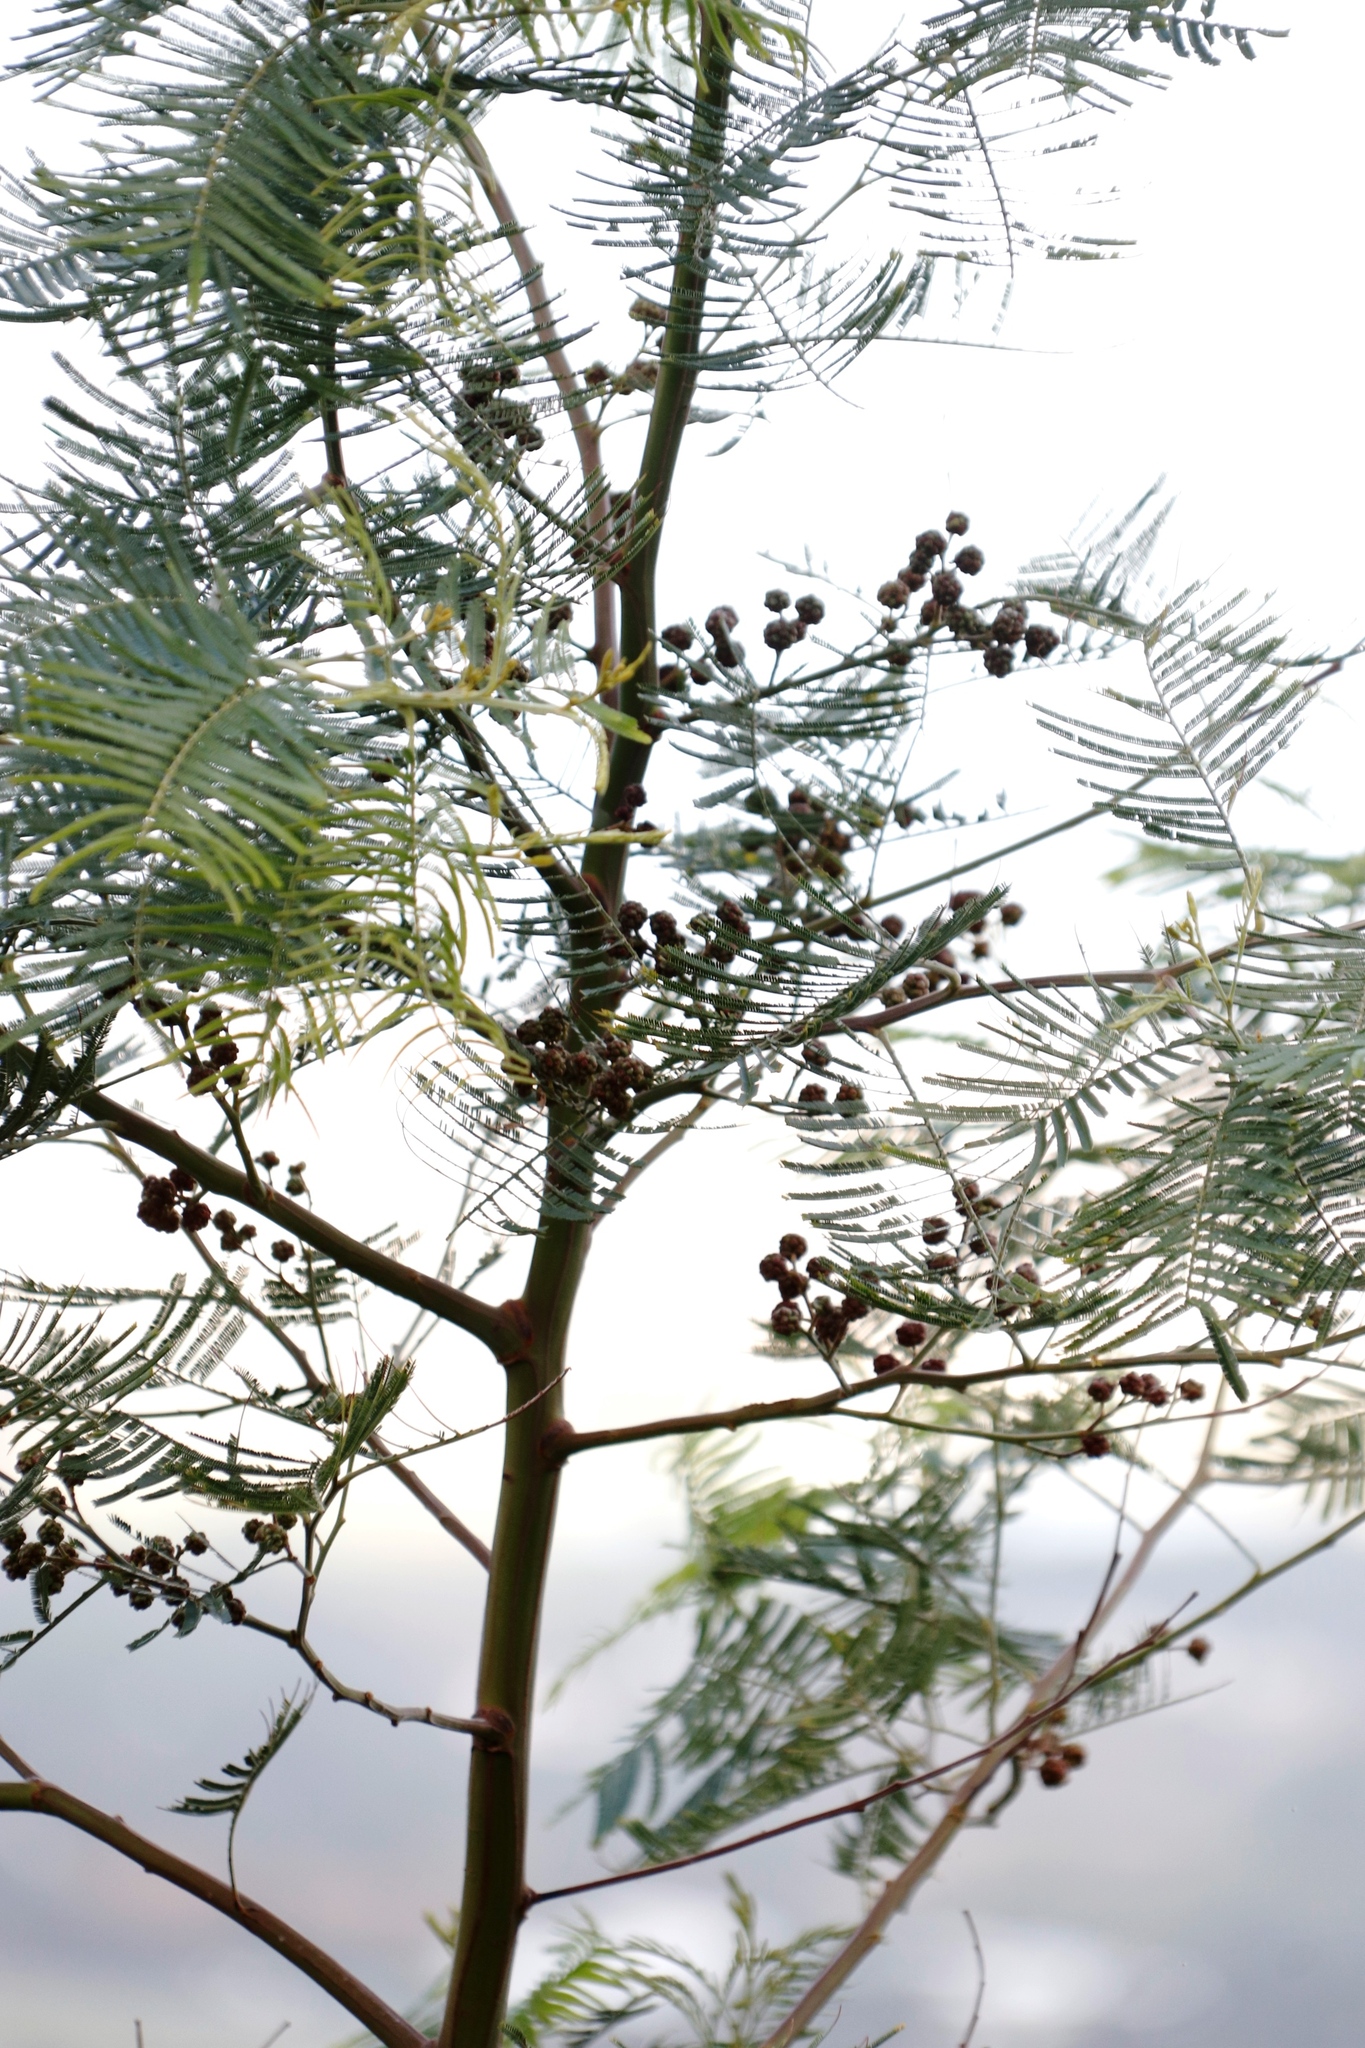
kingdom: Animalia
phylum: Arthropoda
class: Insecta
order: Diptera
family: Cecidomyiidae
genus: Dasineura
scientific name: Dasineura rubiformis
